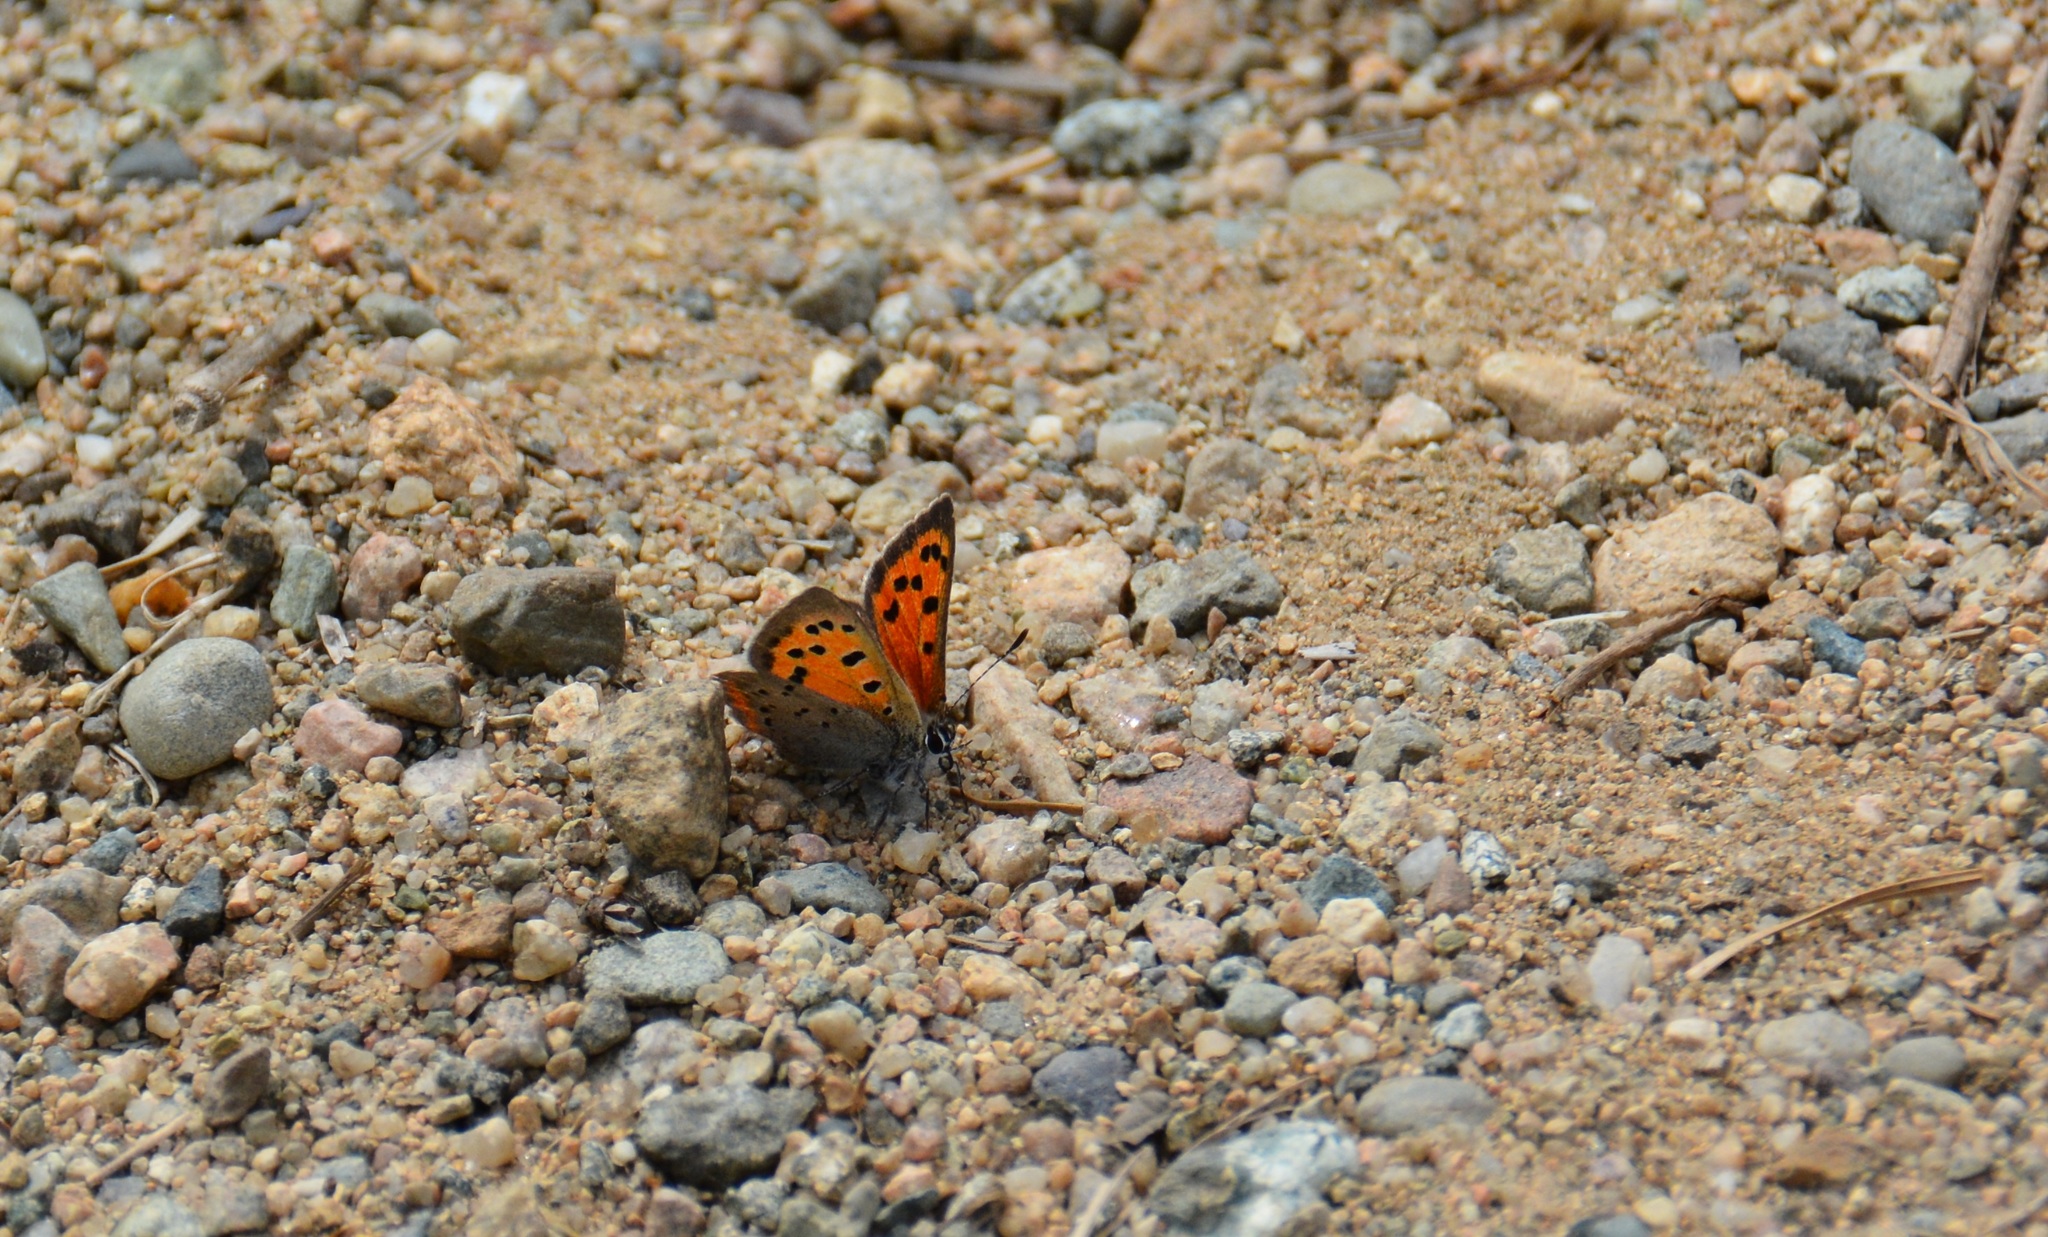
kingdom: Animalia
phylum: Arthropoda
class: Insecta
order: Lepidoptera
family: Lycaenidae
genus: Lycaena
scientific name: Lycaena hypophlaeas
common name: American copper
